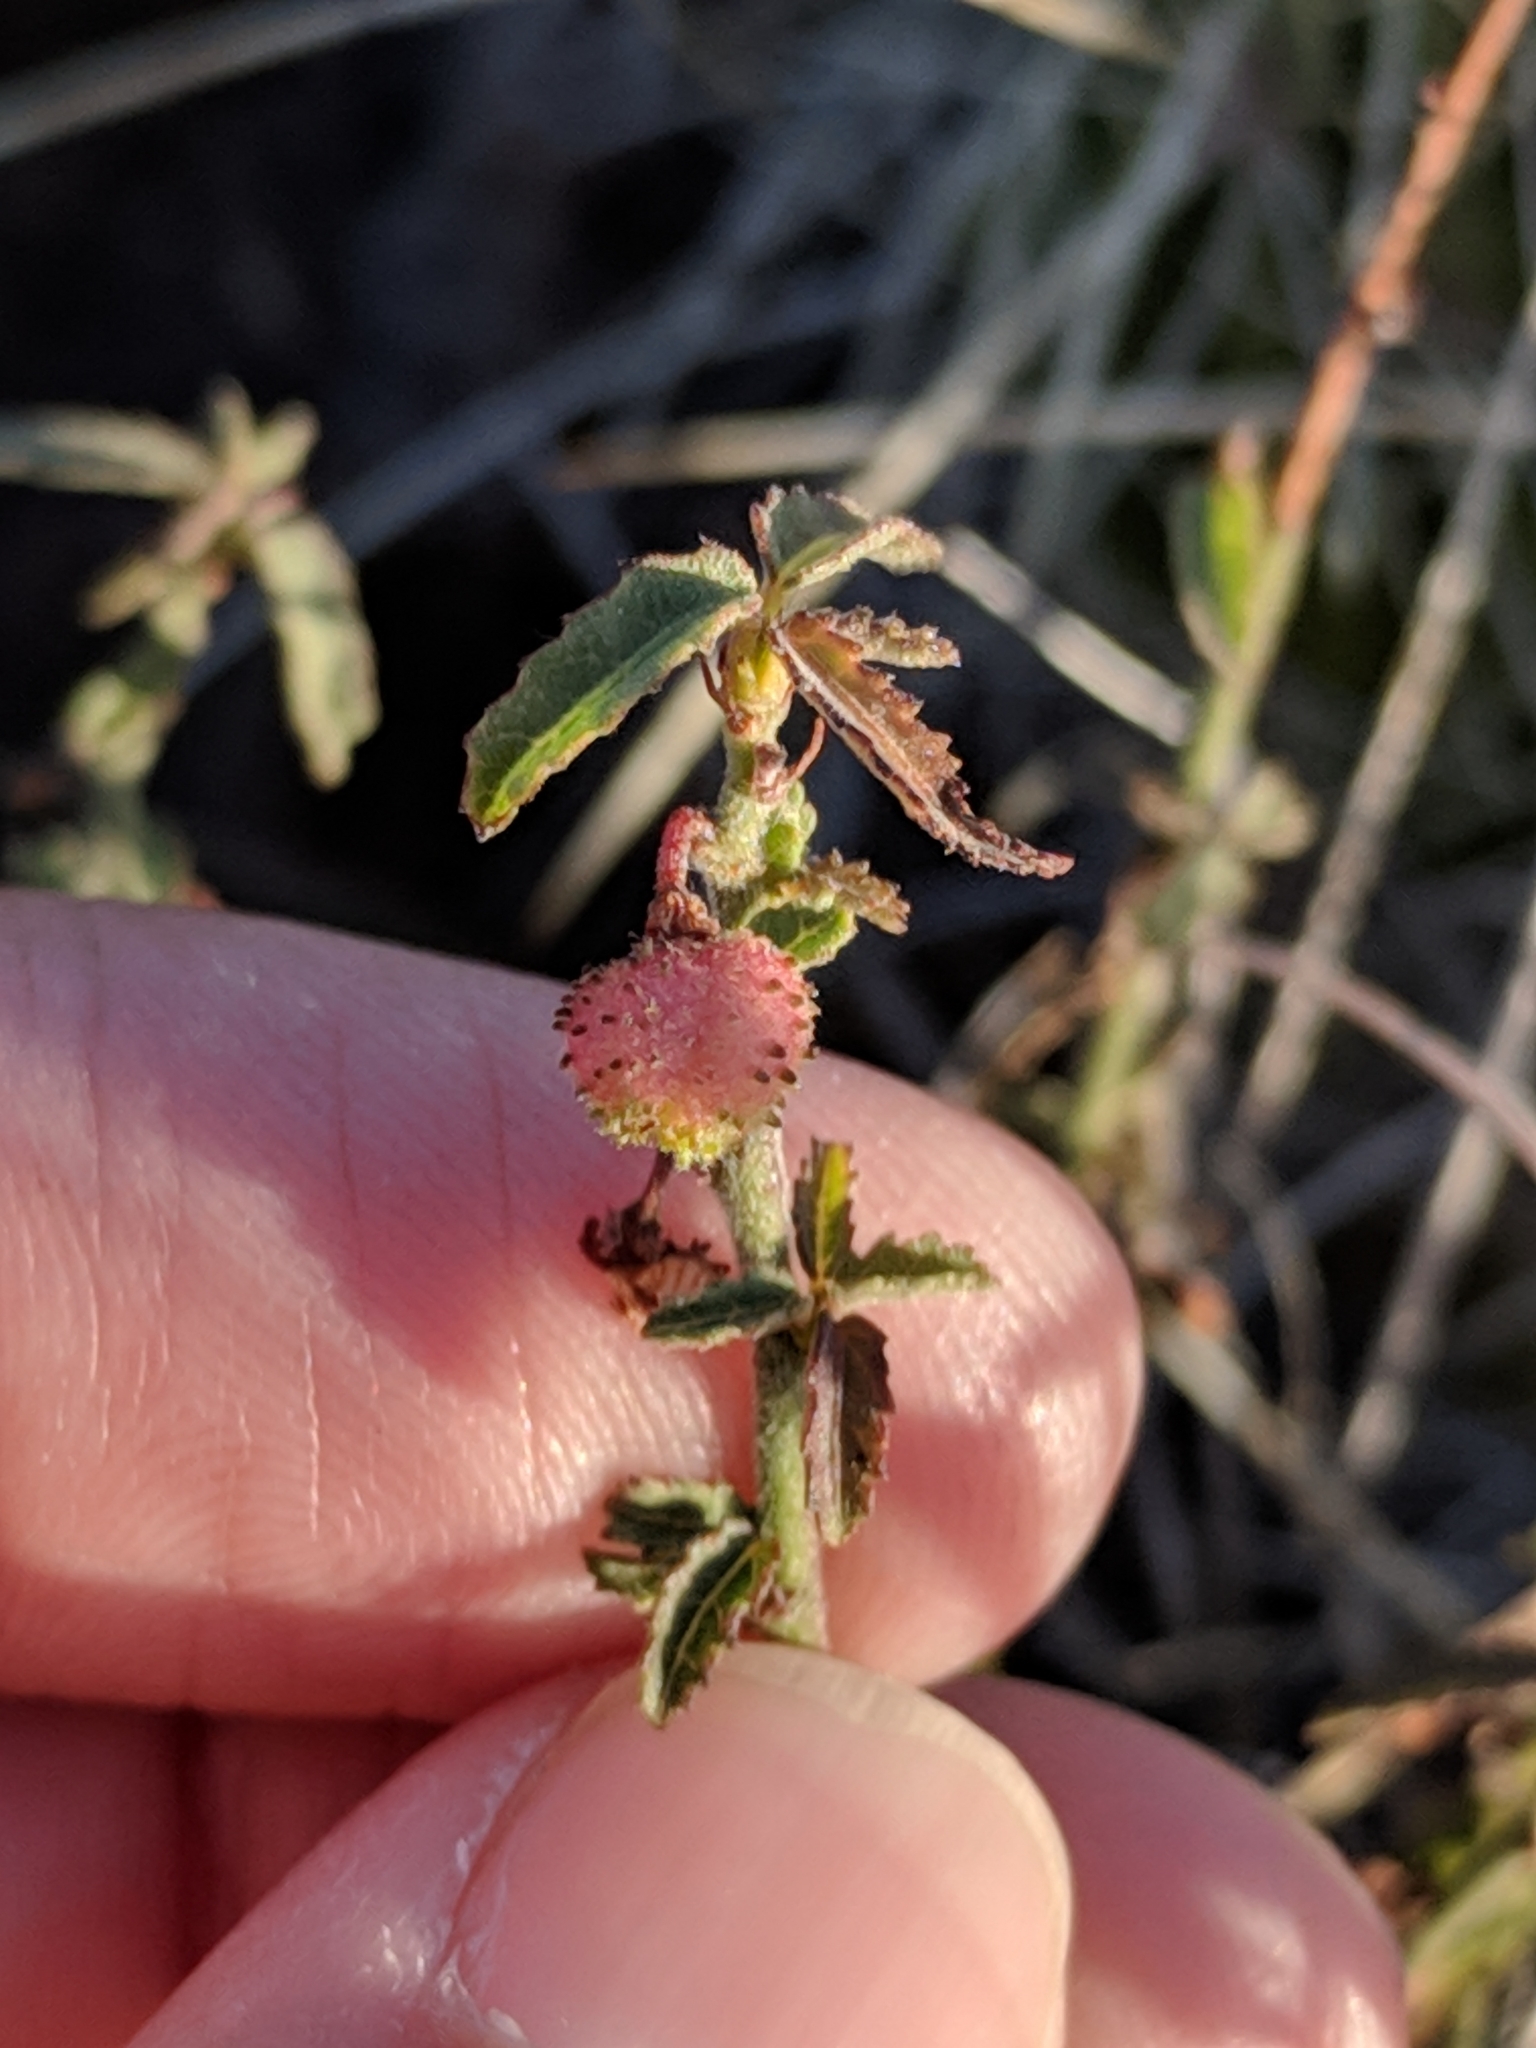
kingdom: Plantae
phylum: Tracheophyta
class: Magnoliopsida
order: Malvales
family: Malvaceae
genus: Ayenia
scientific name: Ayenia filiformis
